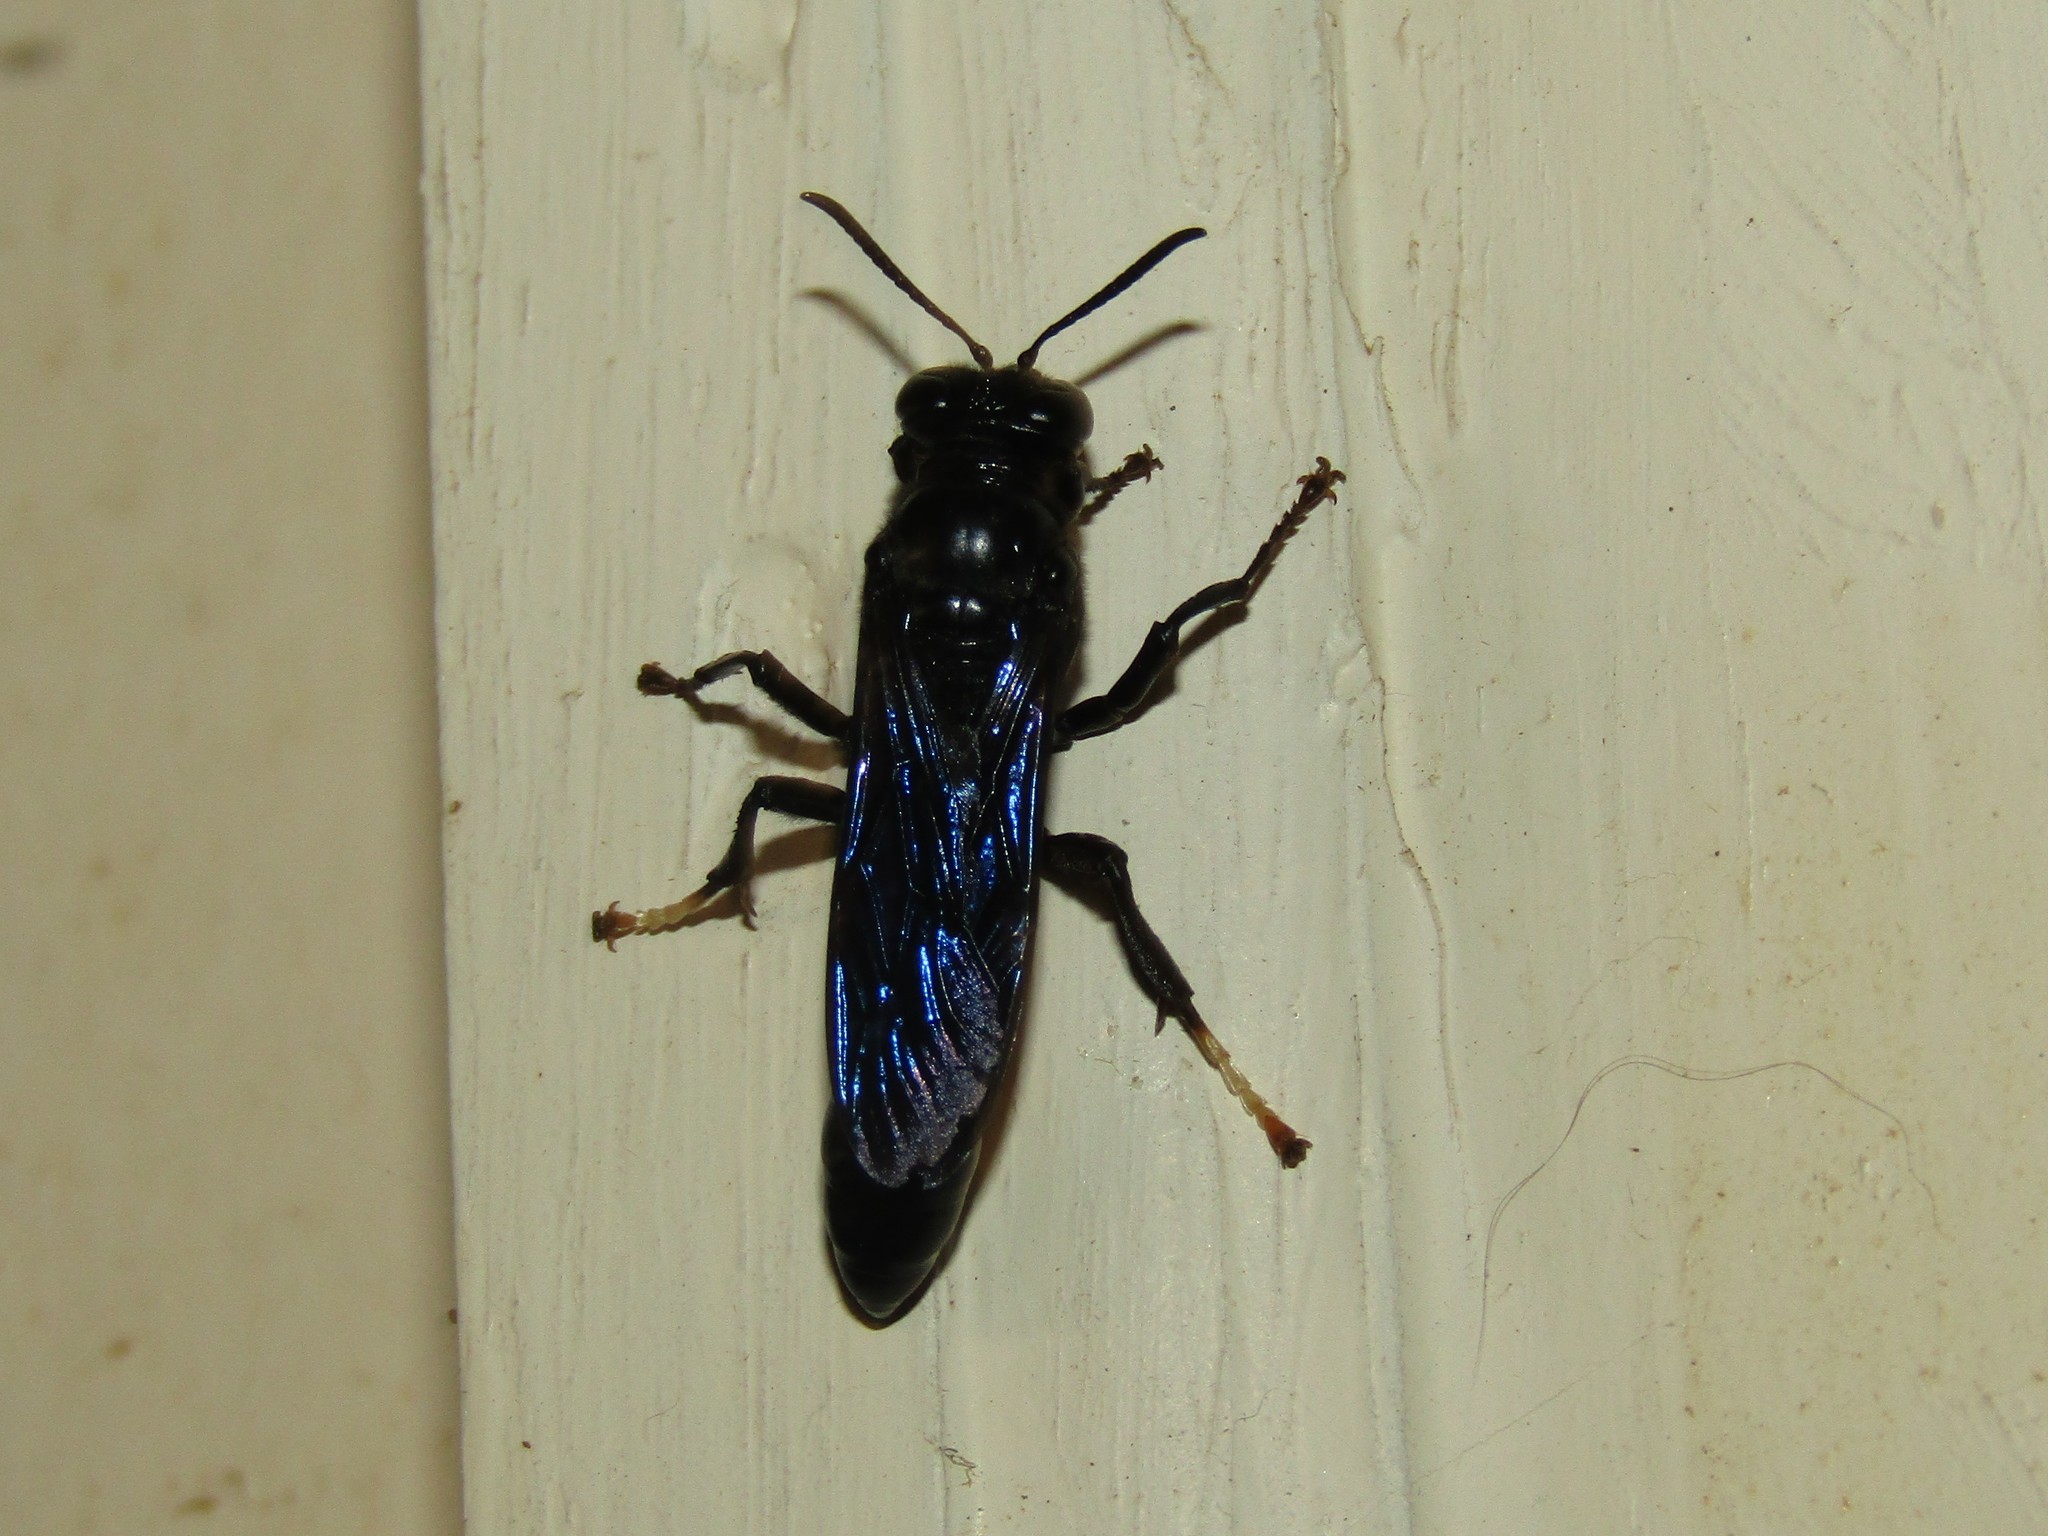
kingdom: Animalia
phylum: Arthropoda
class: Insecta
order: Hymenoptera
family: Crabronidae
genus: Trypoxylon
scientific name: Trypoxylon politum
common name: Organ-pipe mud-dauber wasp
